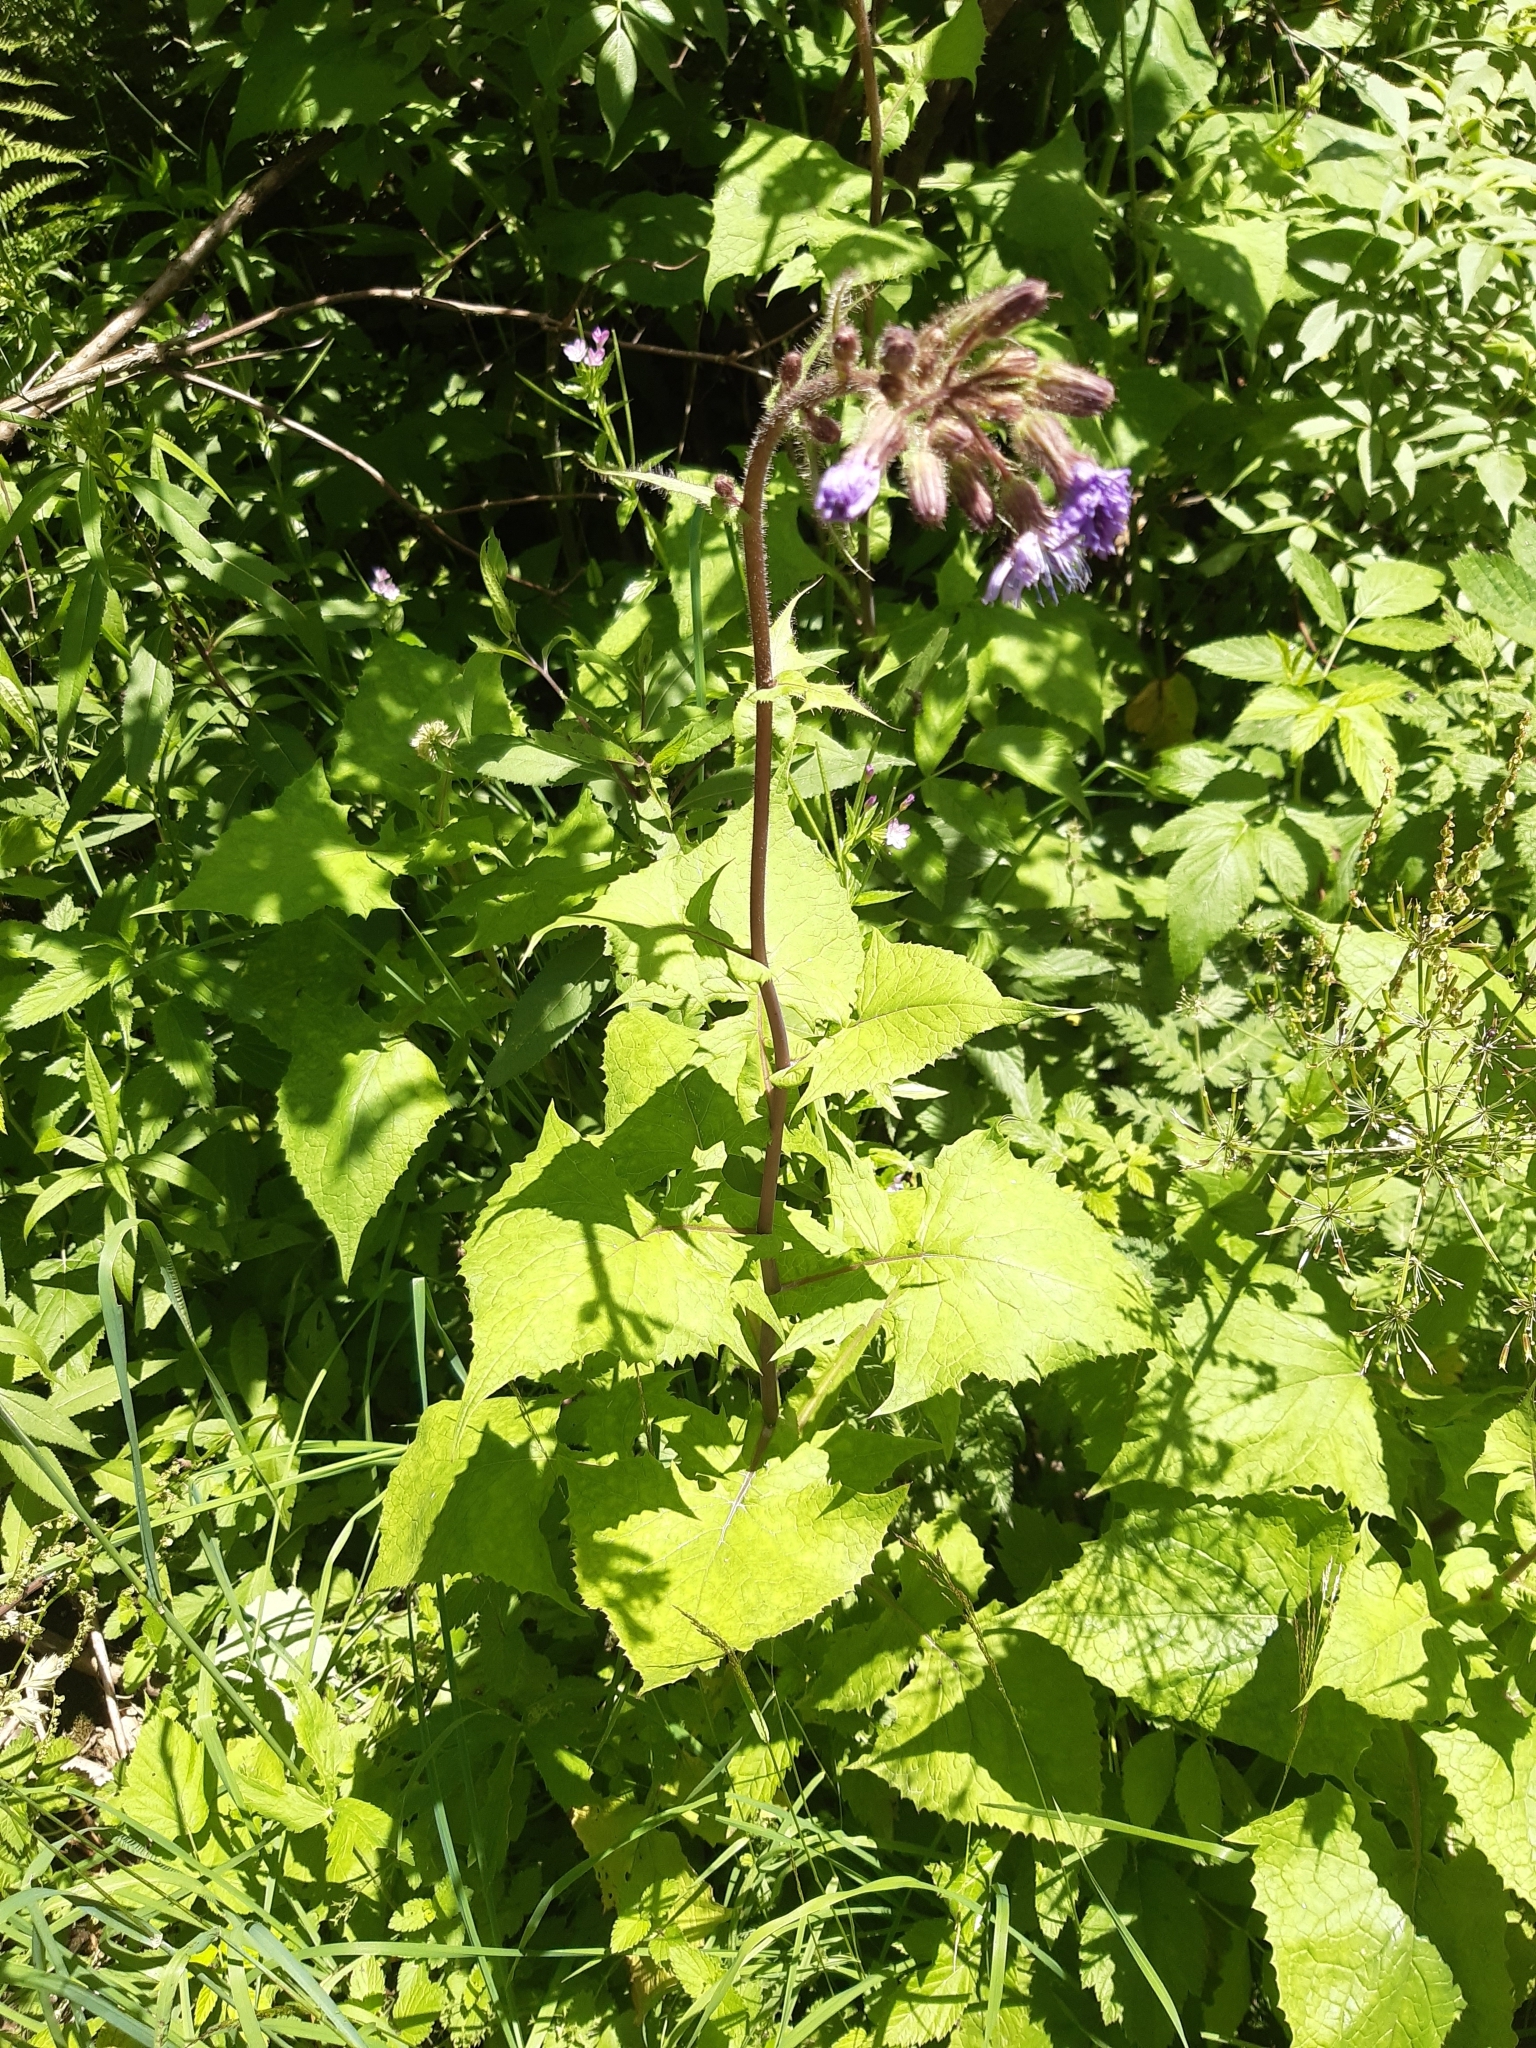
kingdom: Plantae
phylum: Tracheophyta
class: Magnoliopsida
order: Asterales
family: Asteraceae
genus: Cicerbita
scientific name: Cicerbita alpina
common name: Alpine blue-sow-thistle
